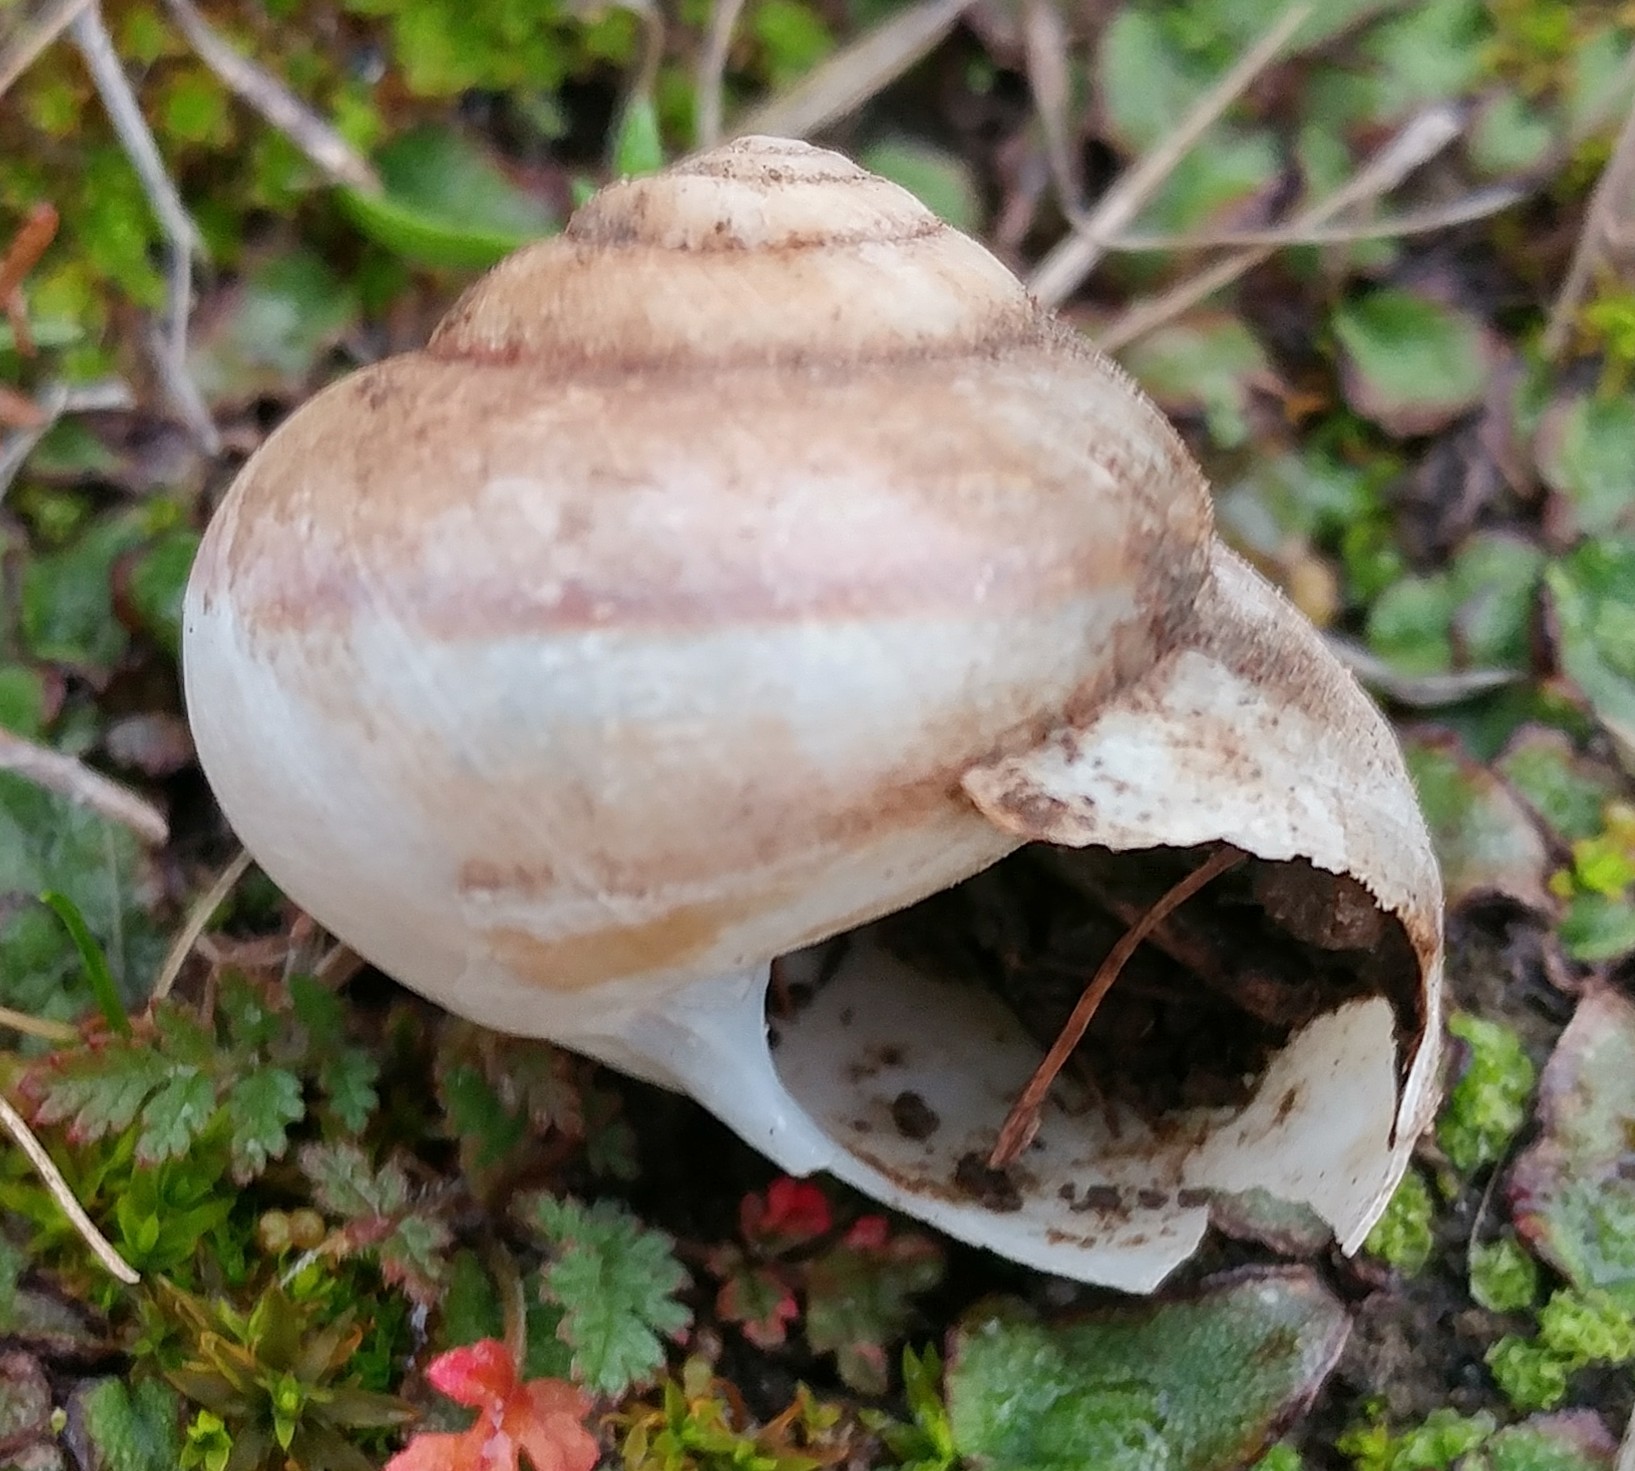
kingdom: Animalia
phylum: Mollusca
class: Gastropoda
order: Stylommatophora
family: Xanthonychidae
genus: Xerarionta
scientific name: Xerarionta stearnsiana
